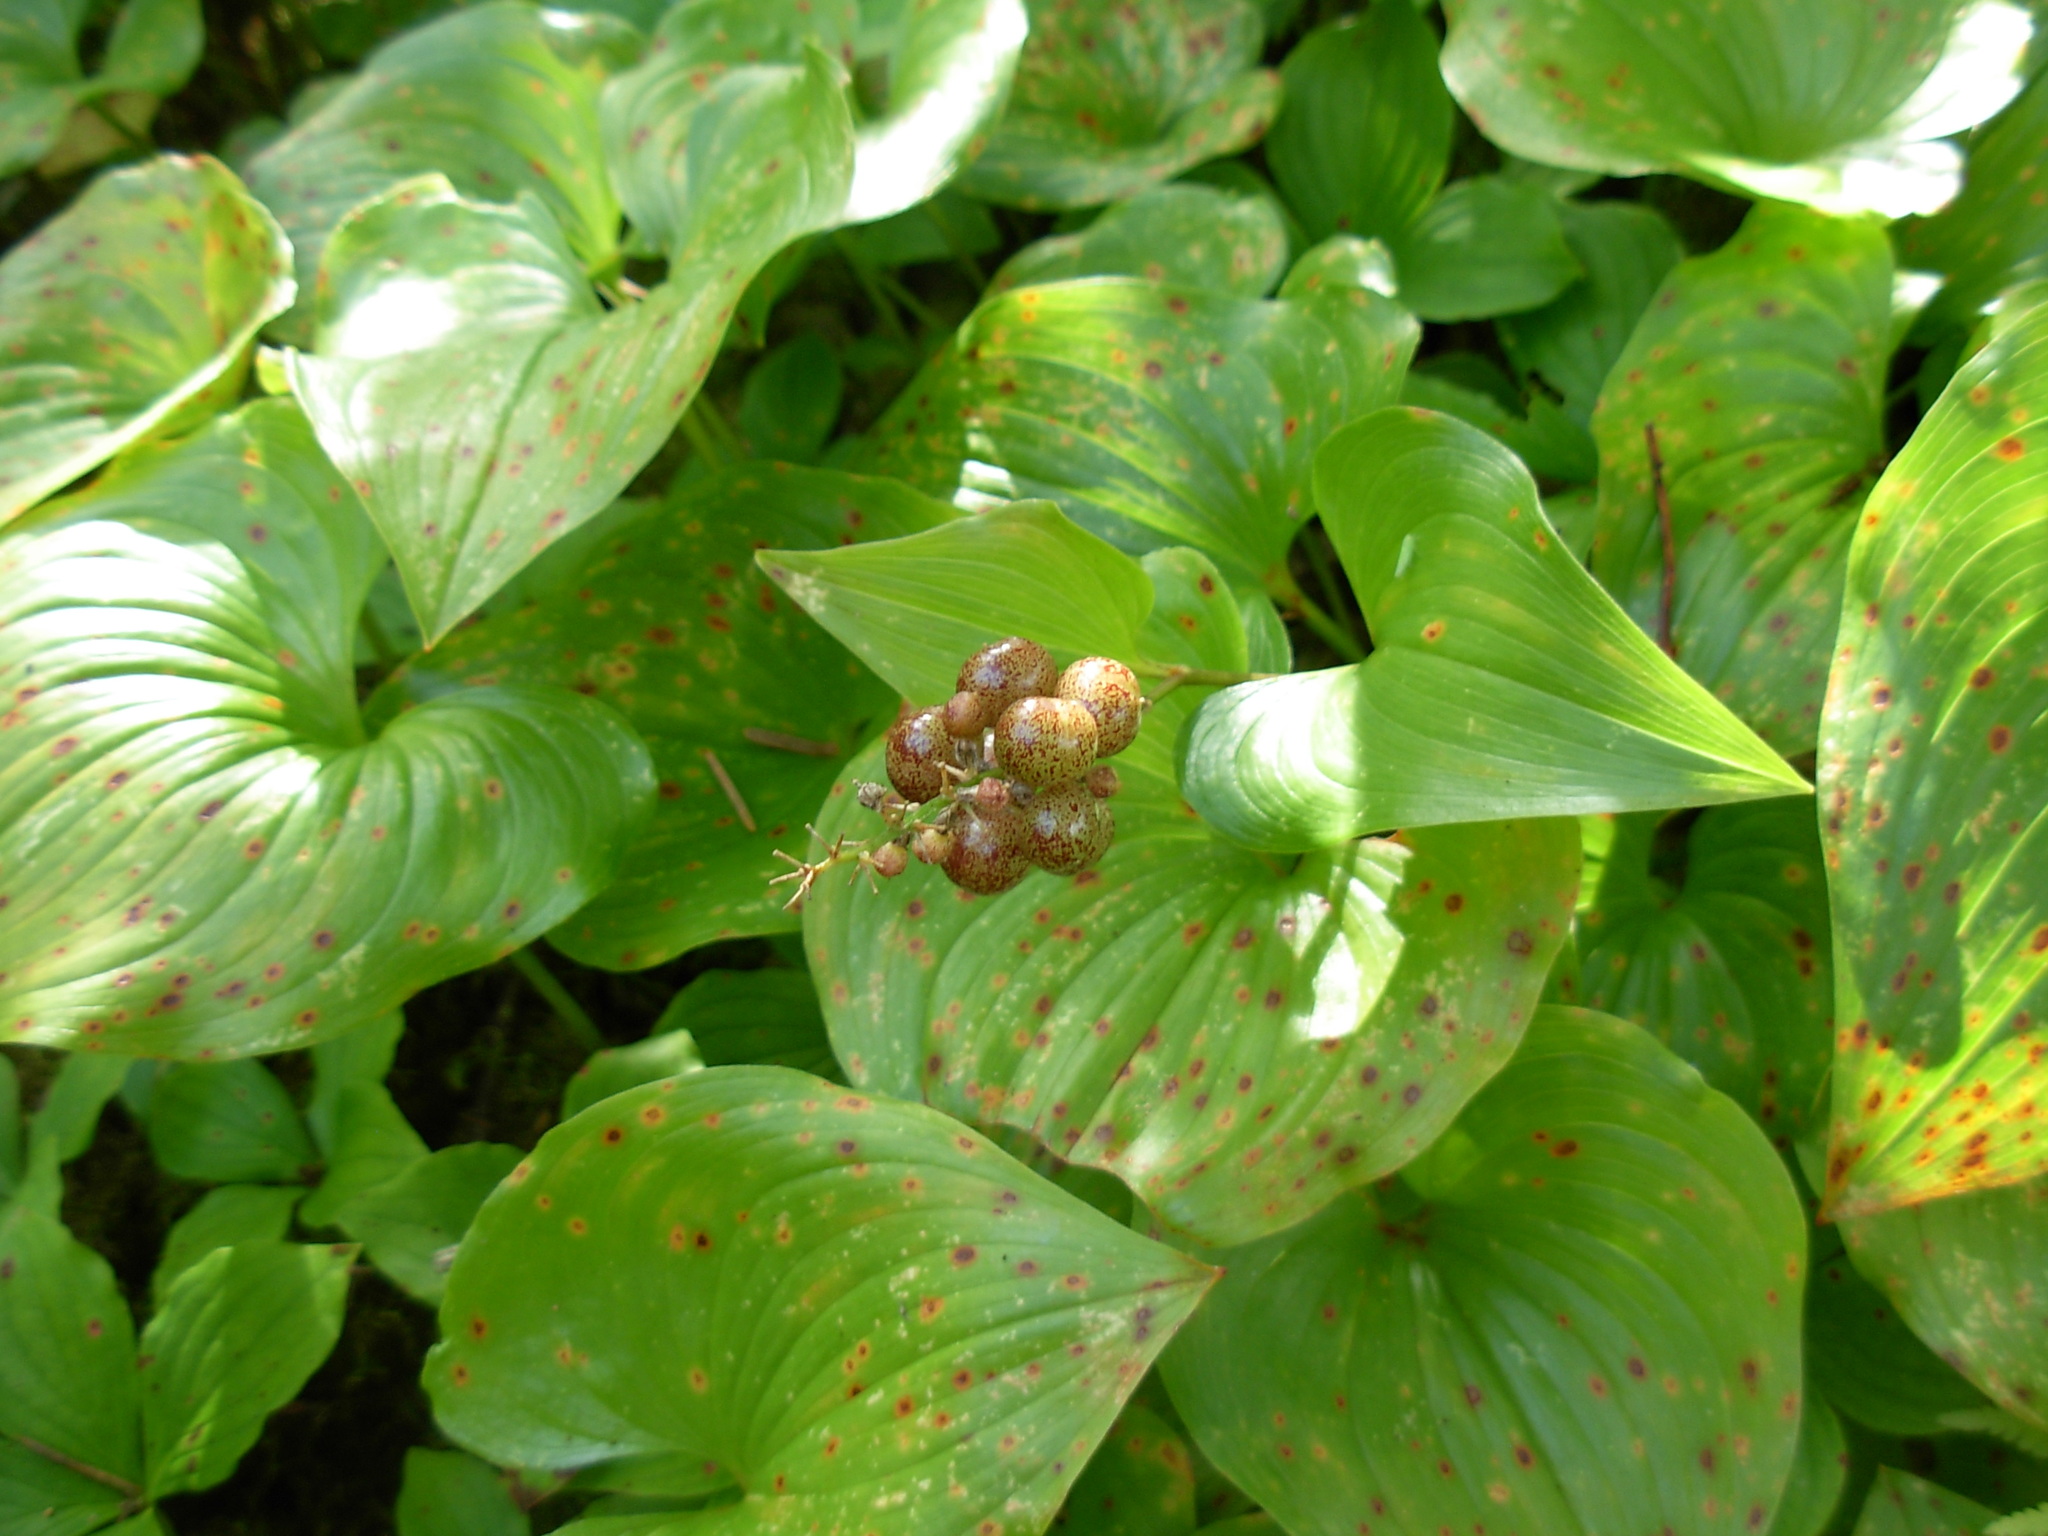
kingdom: Plantae
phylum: Tracheophyta
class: Liliopsida
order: Asparagales
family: Asparagaceae
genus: Maianthemum
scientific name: Maianthemum dilatatum
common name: False lily-of-the-valley
